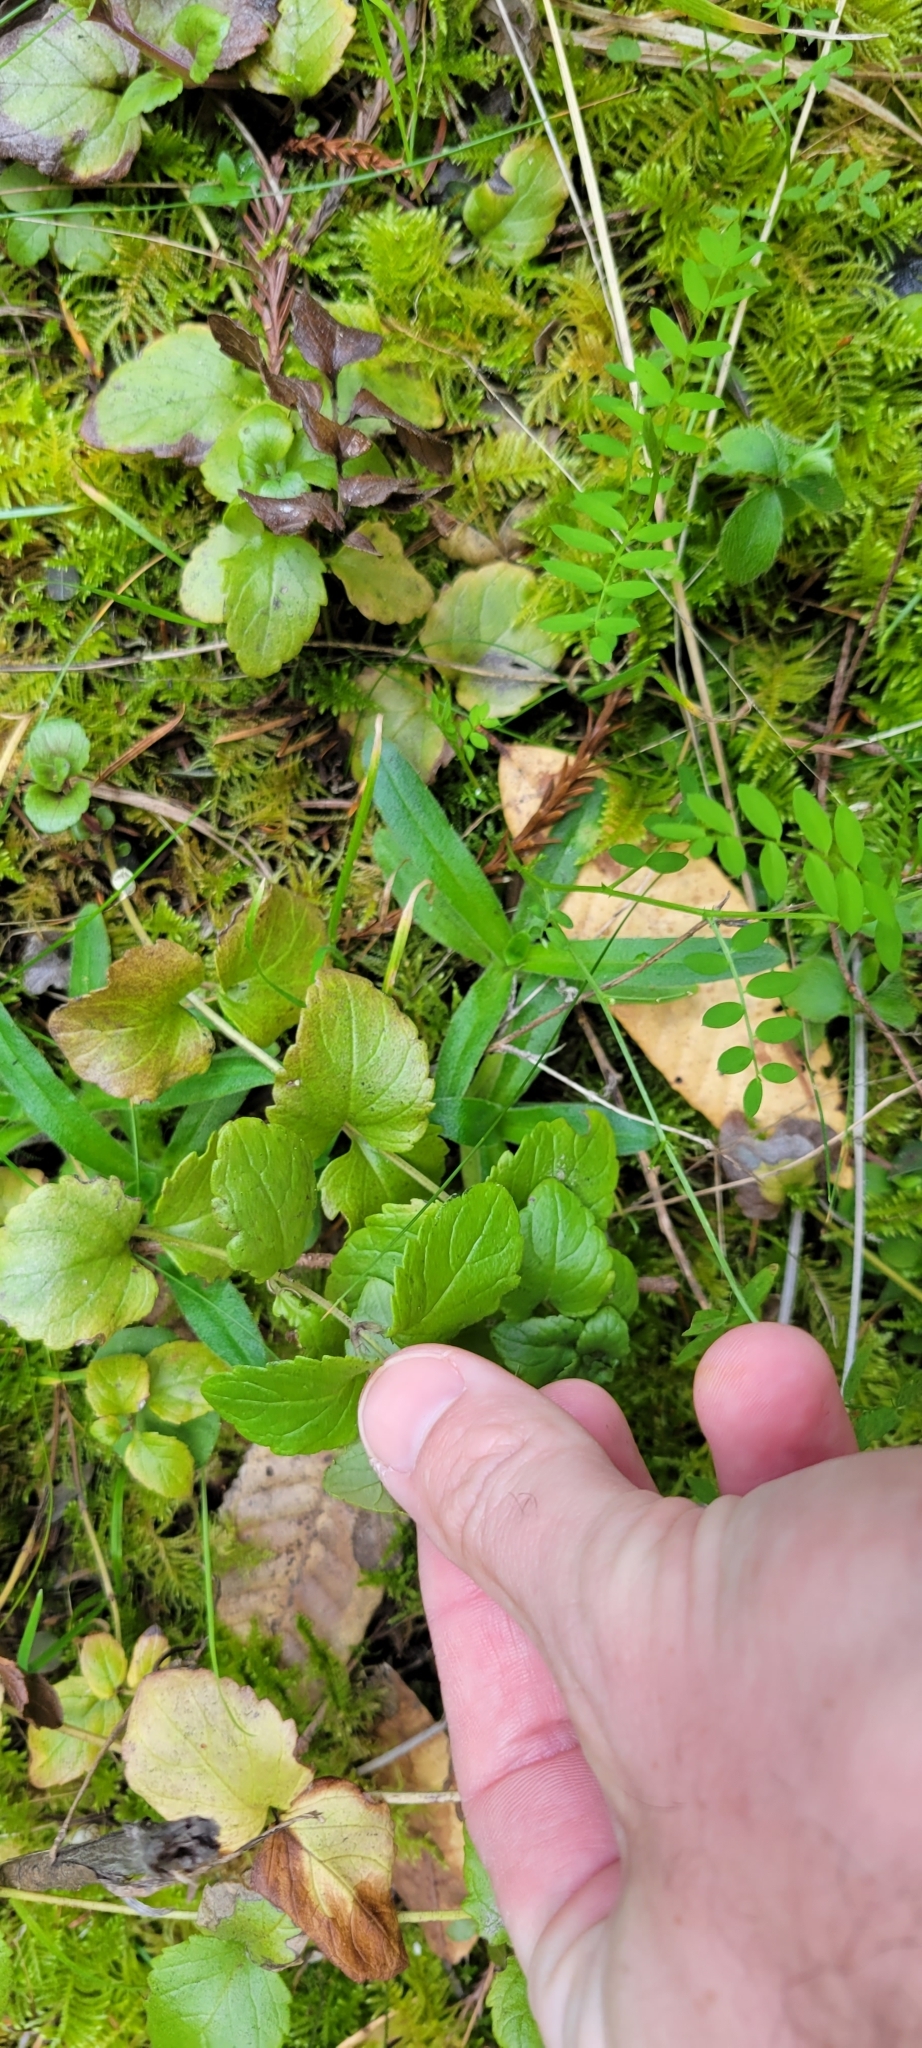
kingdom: Plantae
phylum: Tracheophyta
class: Magnoliopsida
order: Lamiales
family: Lamiaceae
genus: Micromeria
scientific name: Micromeria douglasii
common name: Yerba buena
